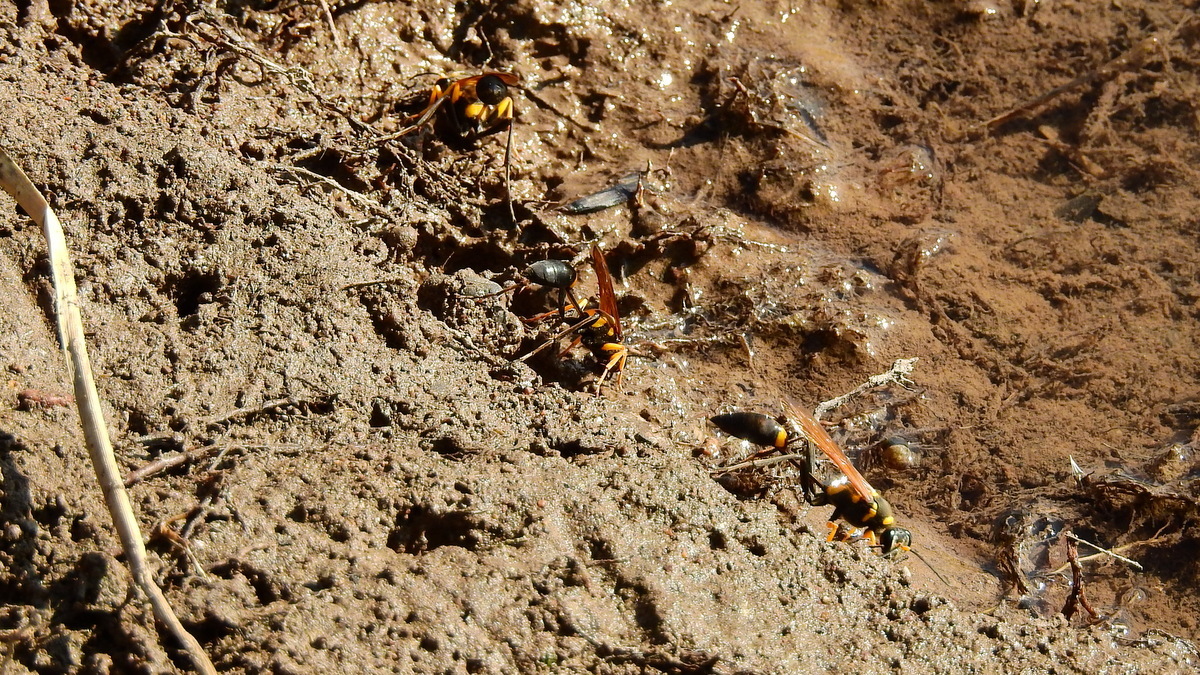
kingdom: Animalia
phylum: Arthropoda
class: Insecta
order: Hymenoptera
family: Sphecidae
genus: Sceliphron
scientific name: Sceliphron asiaticum
